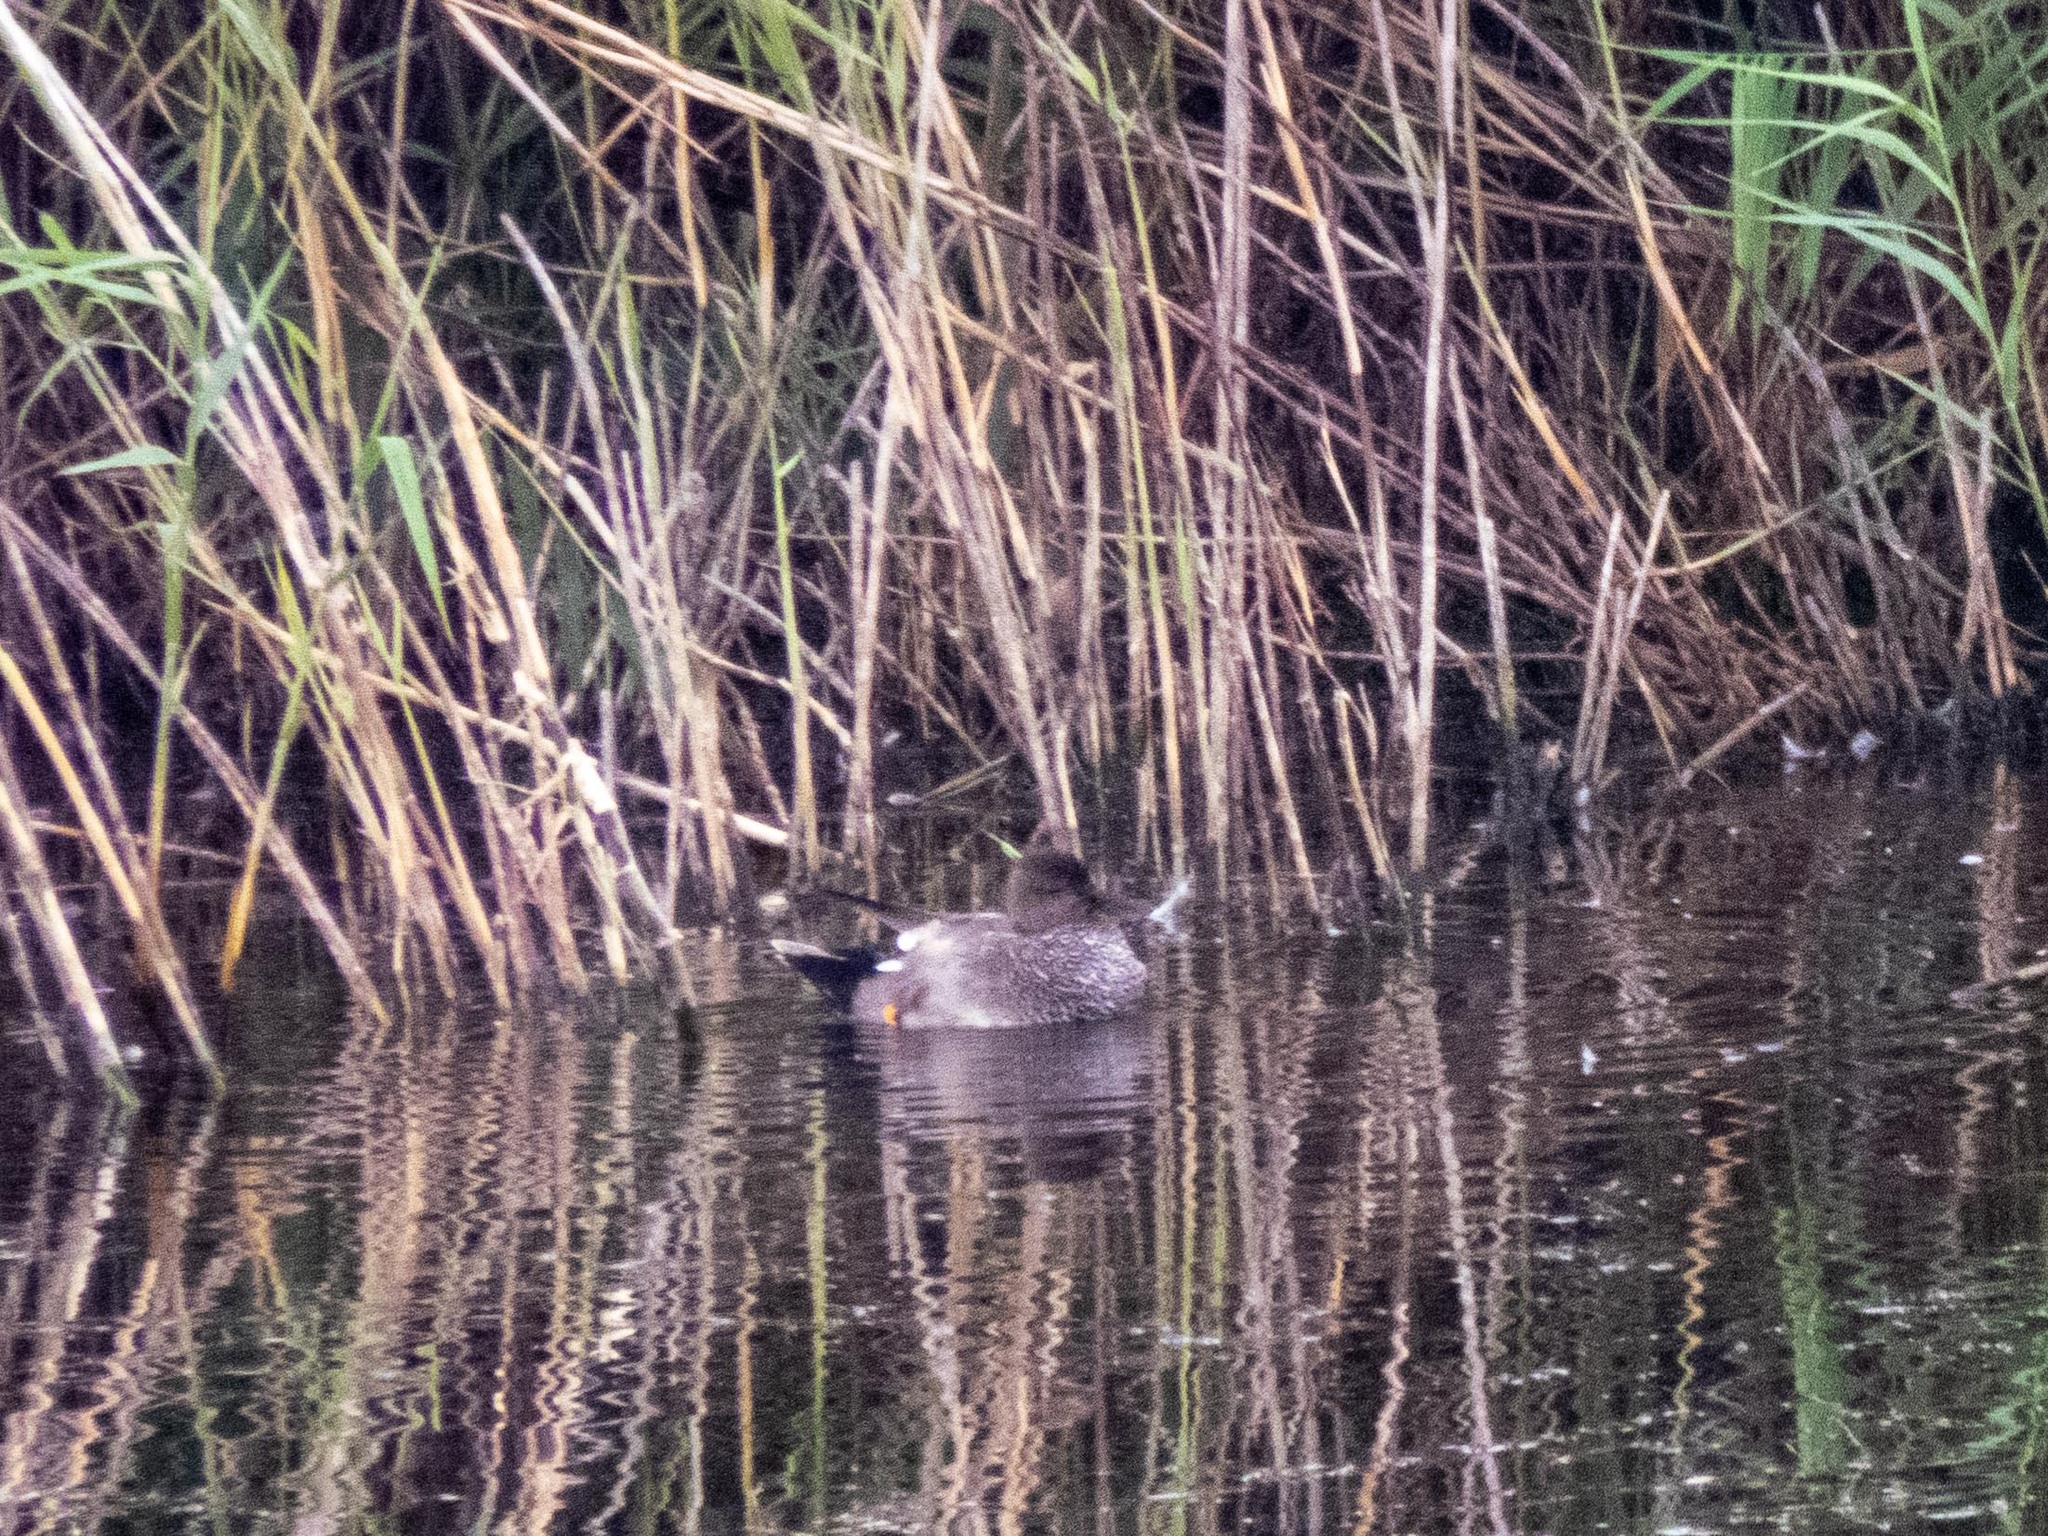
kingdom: Animalia
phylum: Chordata
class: Aves
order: Anseriformes
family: Anatidae
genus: Mareca
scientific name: Mareca strepera
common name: Gadwall
